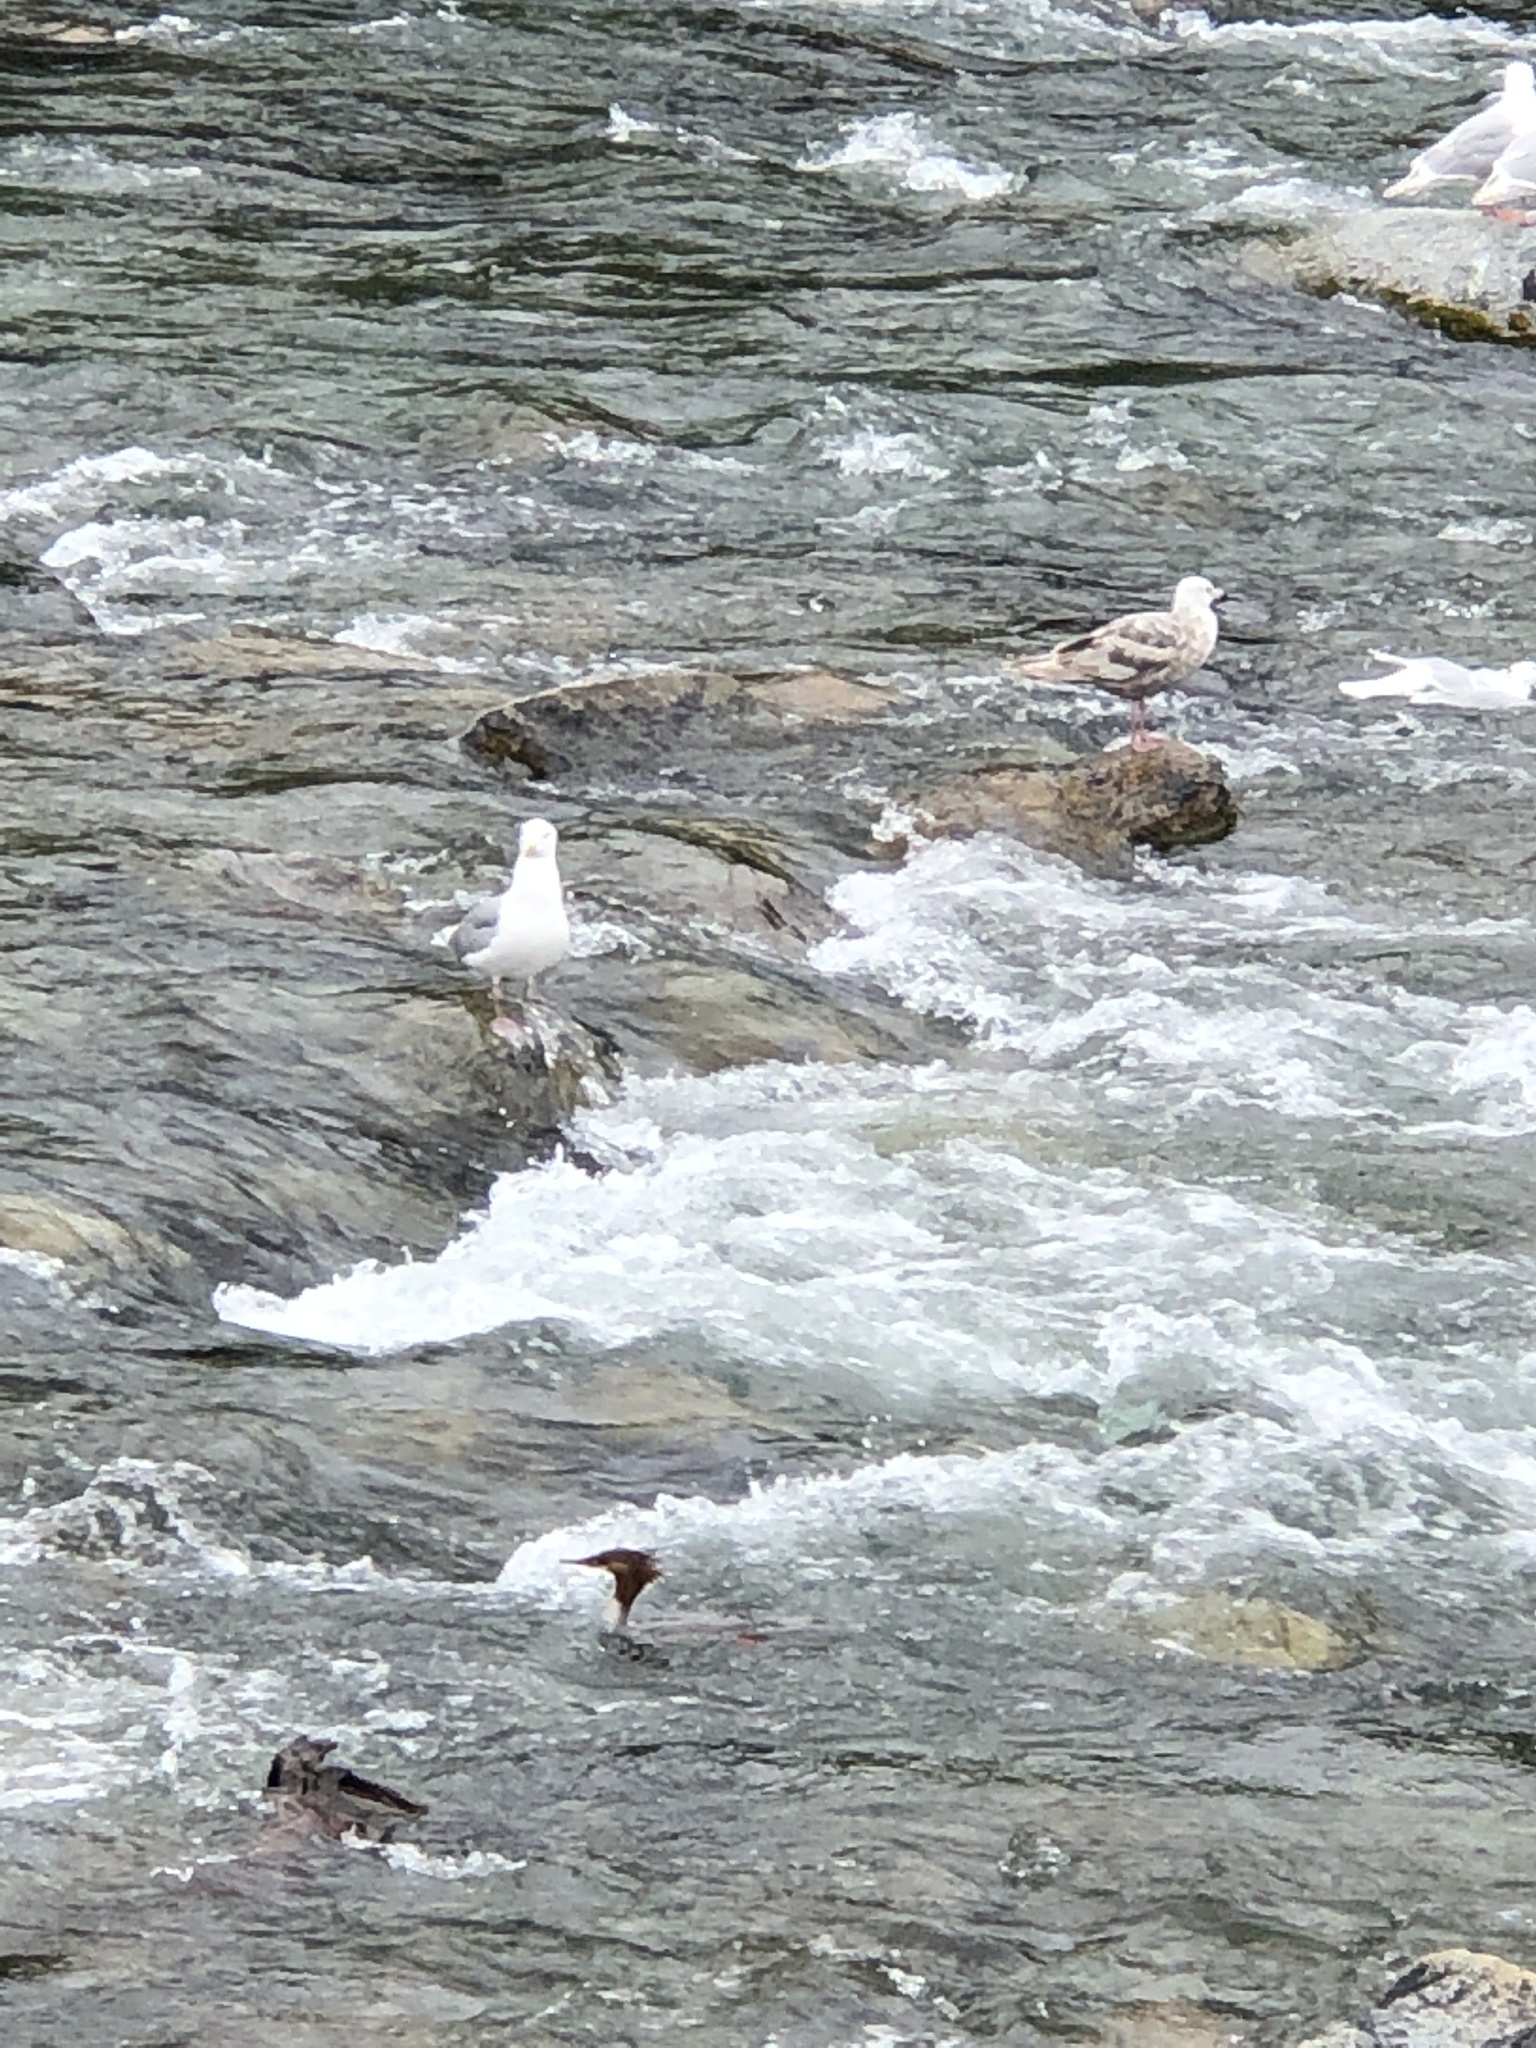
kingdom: Animalia
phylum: Chordata
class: Aves
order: Charadriiformes
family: Laridae
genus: Larus
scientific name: Larus glaucescens
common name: Glaucous-winged gull
